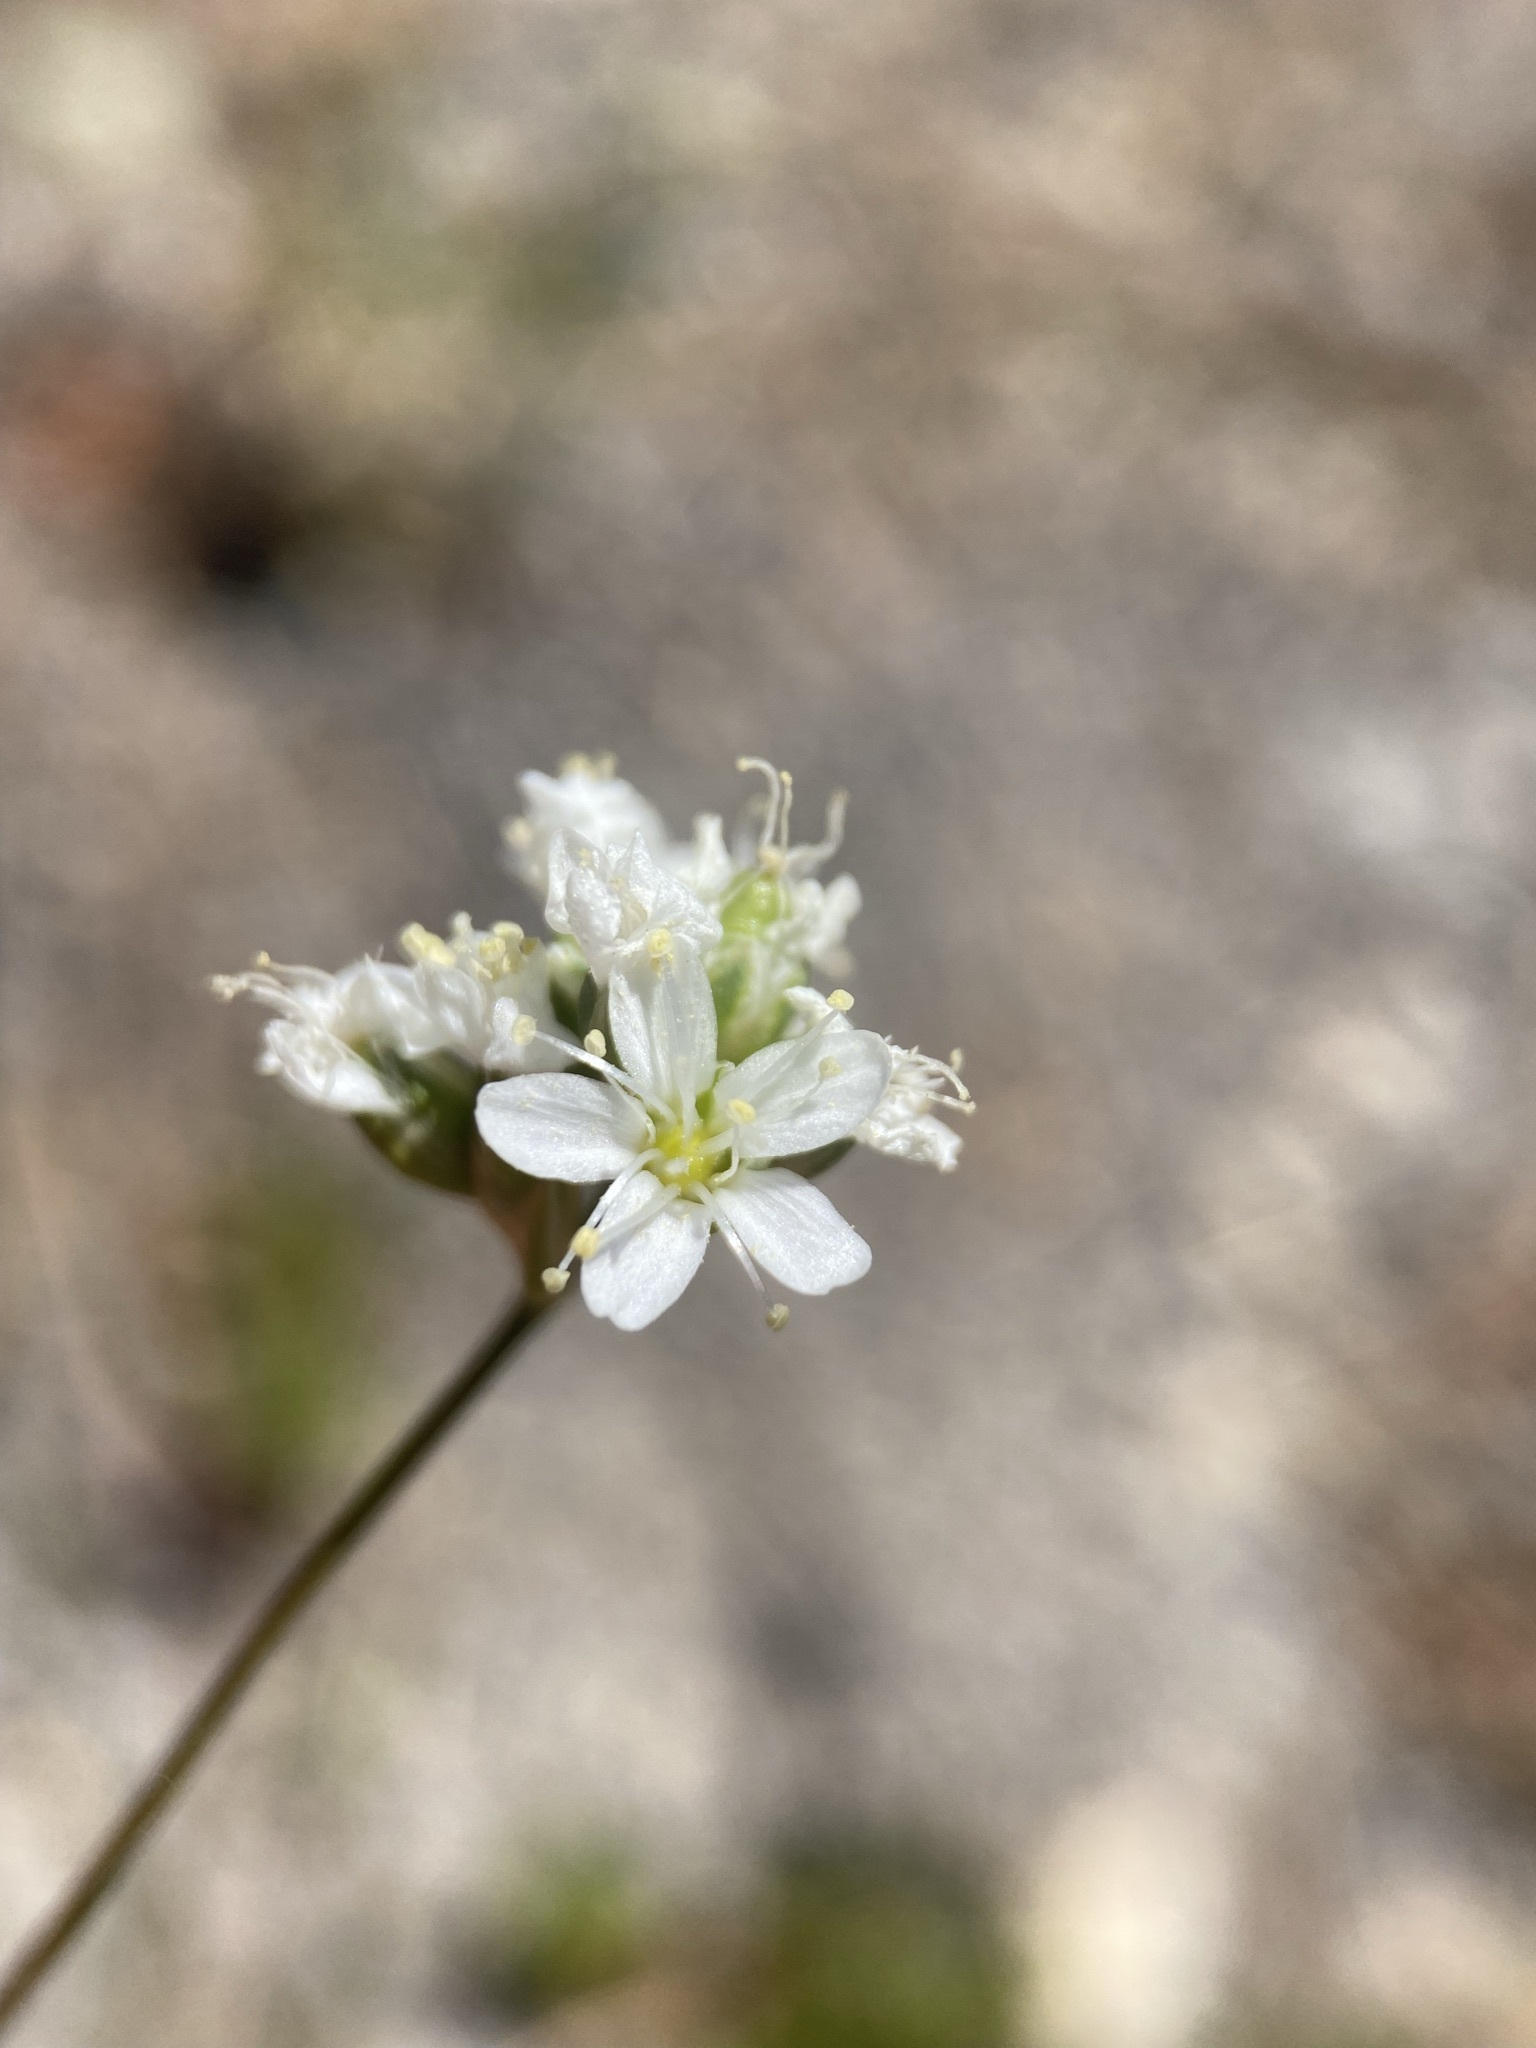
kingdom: Plantae
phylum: Tracheophyta
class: Magnoliopsida
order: Caryophyllales
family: Caryophyllaceae
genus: Eremogone
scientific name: Eremogone congesta
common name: Ballhead sandwort
